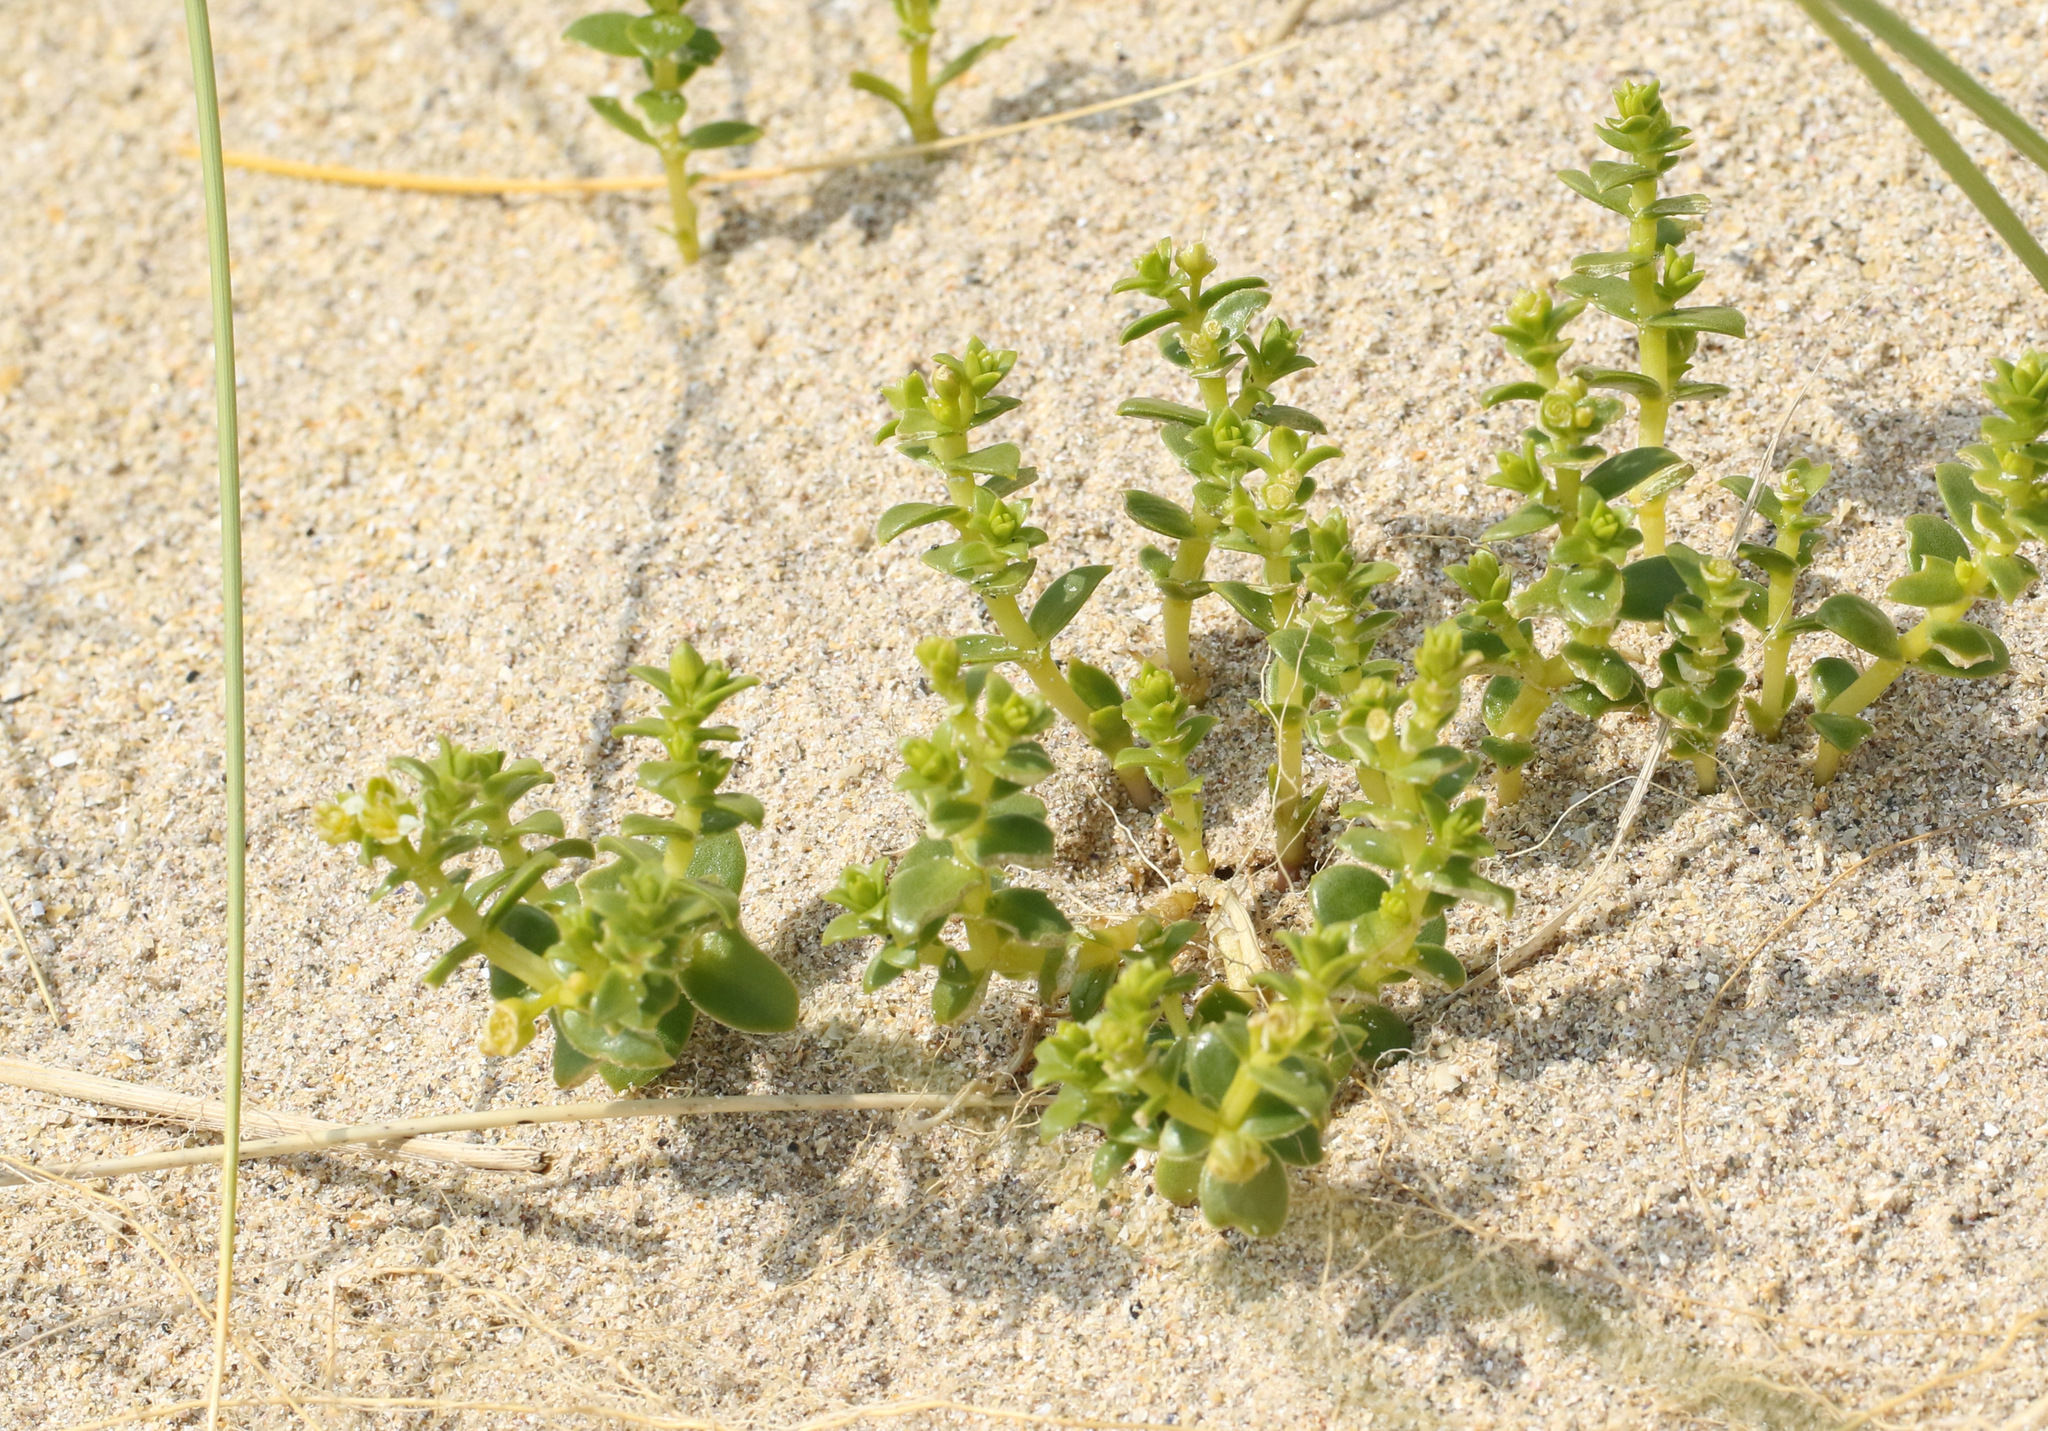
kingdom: Plantae
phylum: Tracheophyta
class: Magnoliopsida
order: Caryophyllales
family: Caryophyllaceae
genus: Honckenya
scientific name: Honckenya peploides
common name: Sea sandwort
